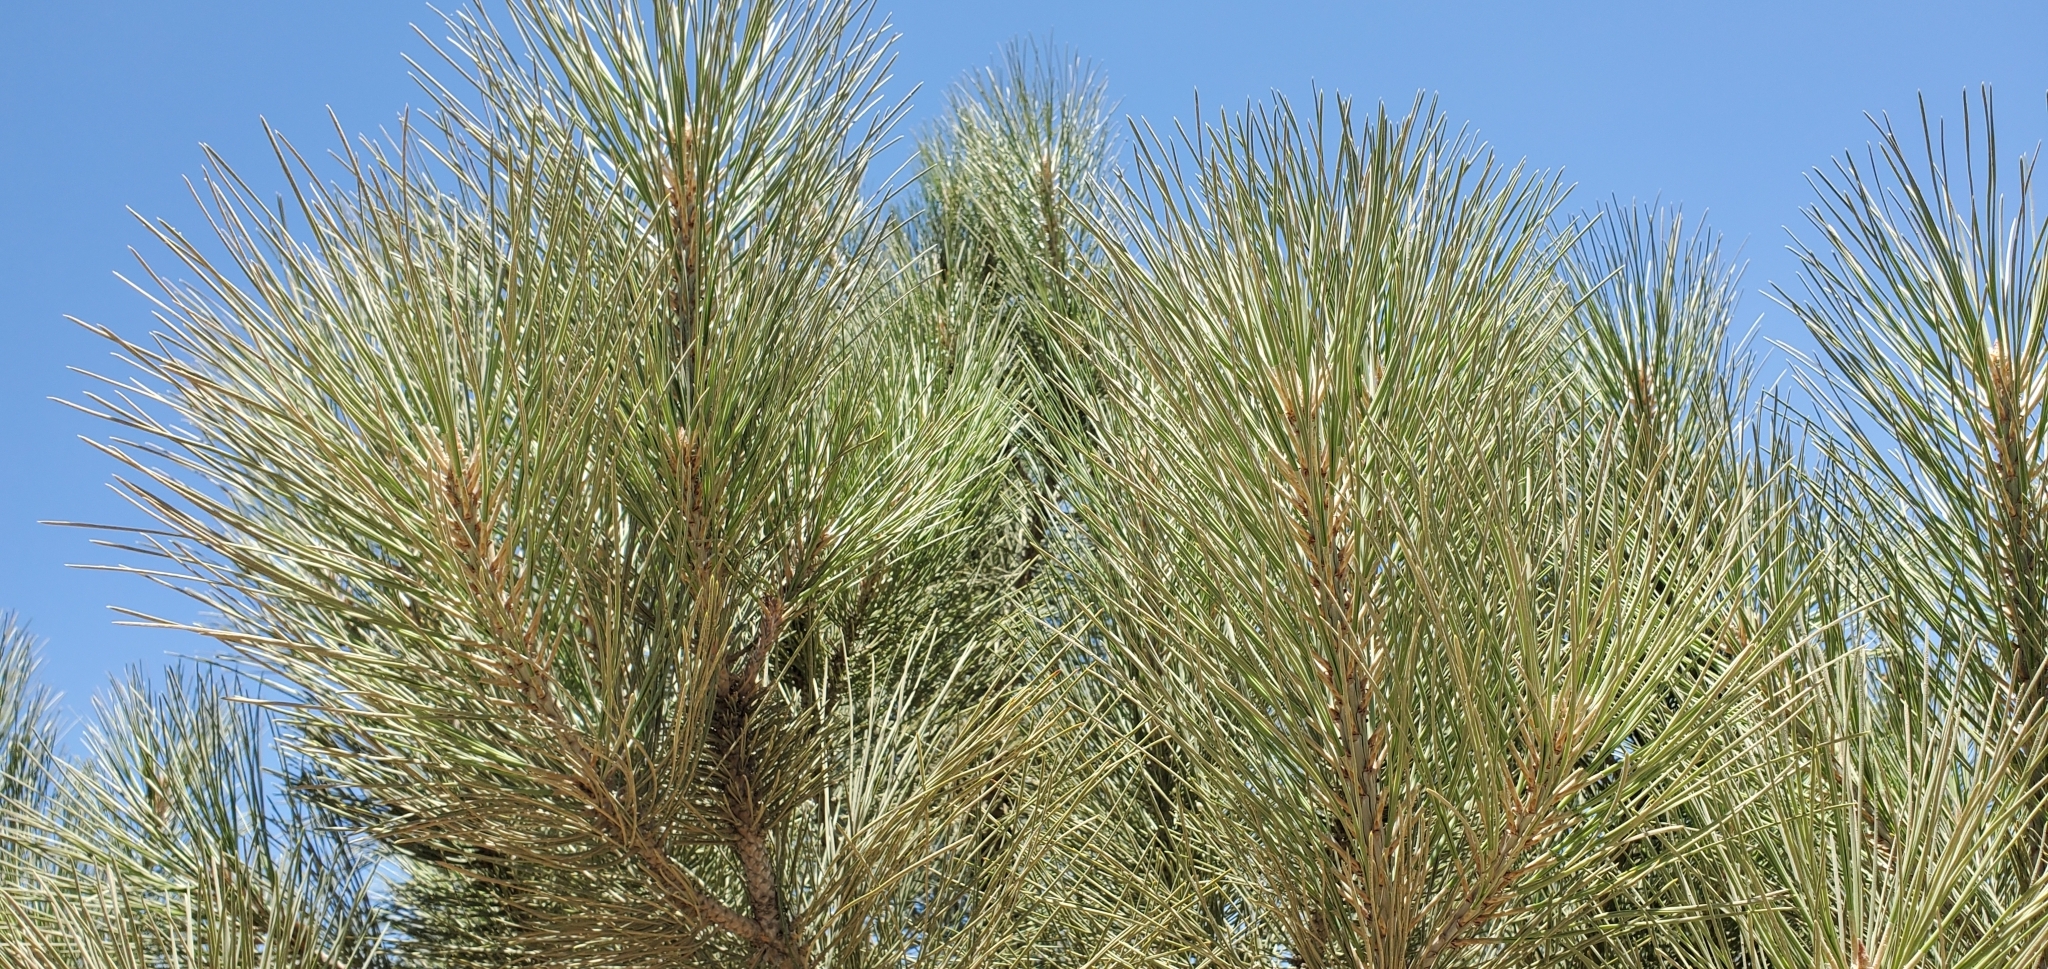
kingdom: Plantae
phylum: Tracheophyta
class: Pinopsida
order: Pinales
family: Pinaceae
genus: Pinus
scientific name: Pinus coulteri
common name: Coulter pine
